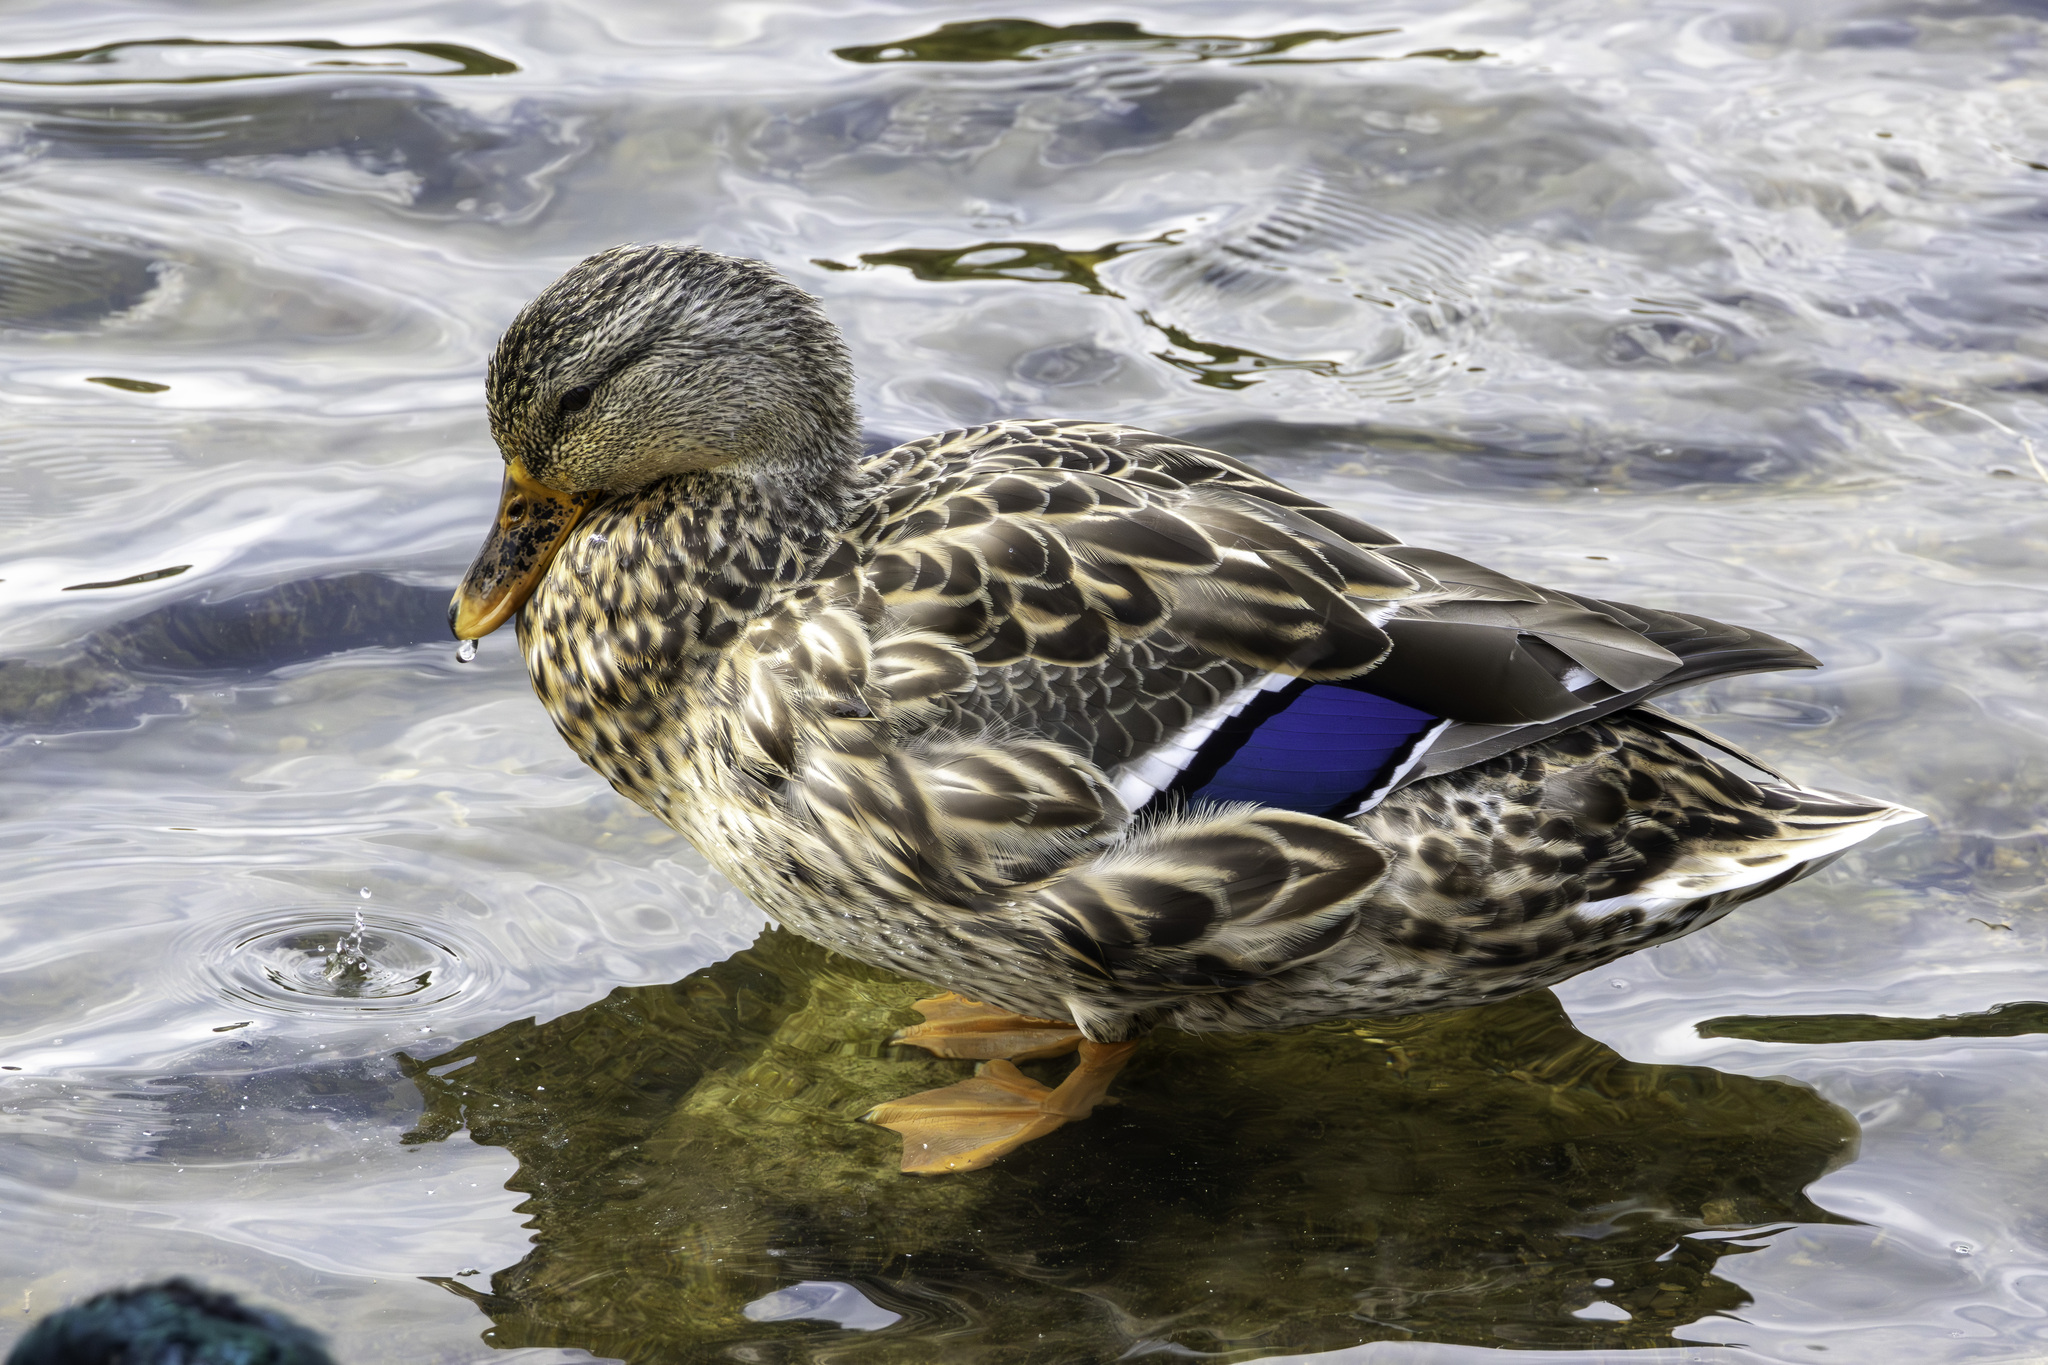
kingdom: Animalia
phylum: Chordata
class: Aves
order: Anseriformes
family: Anatidae
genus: Anas
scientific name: Anas platyrhynchos
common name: Mallard
